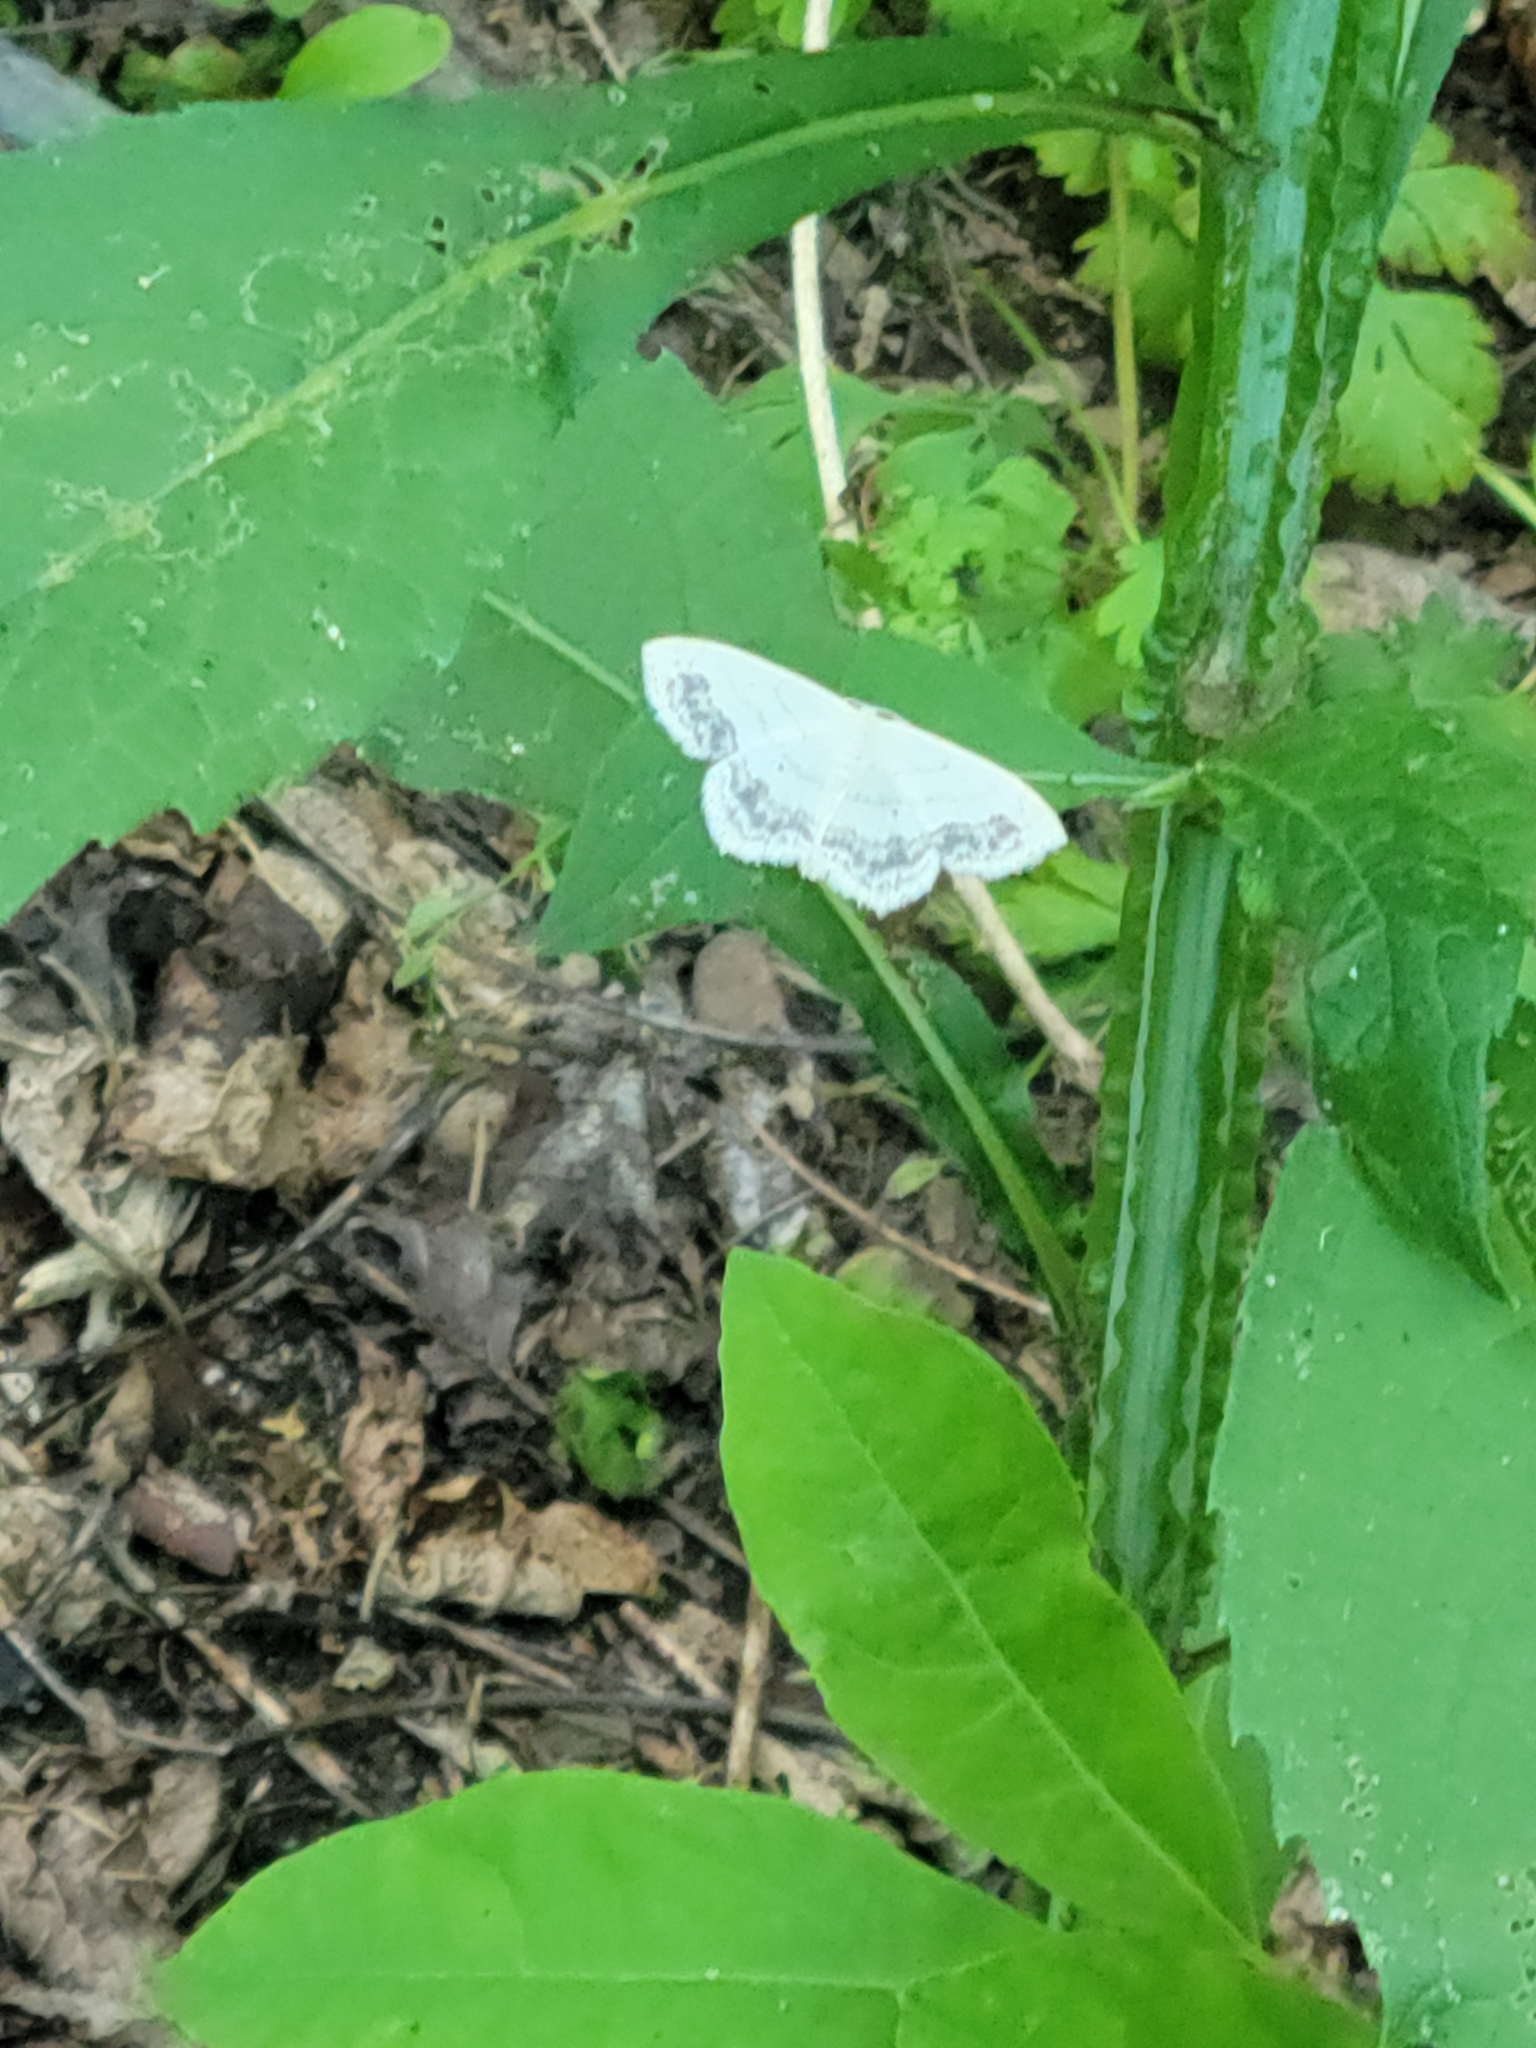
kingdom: Animalia
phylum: Arthropoda
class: Insecta
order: Lepidoptera
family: Geometridae
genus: Scopula
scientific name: Scopula limboundata
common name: Large lace border
